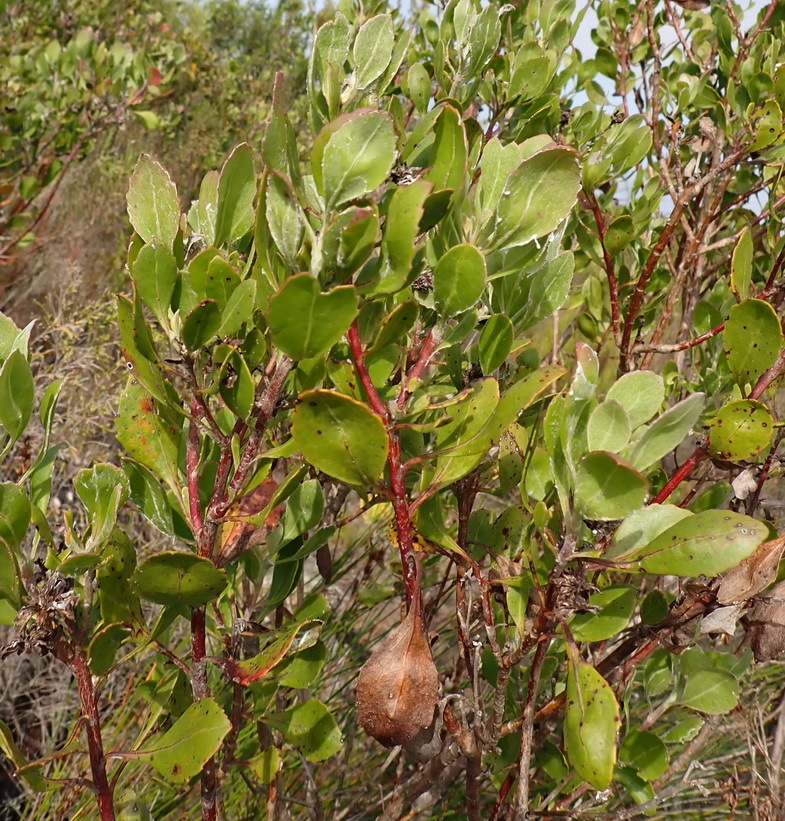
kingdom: Plantae
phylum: Tracheophyta
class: Magnoliopsida
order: Asterales
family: Asteraceae
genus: Osteospermum
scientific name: Osteospermum moniliferum
